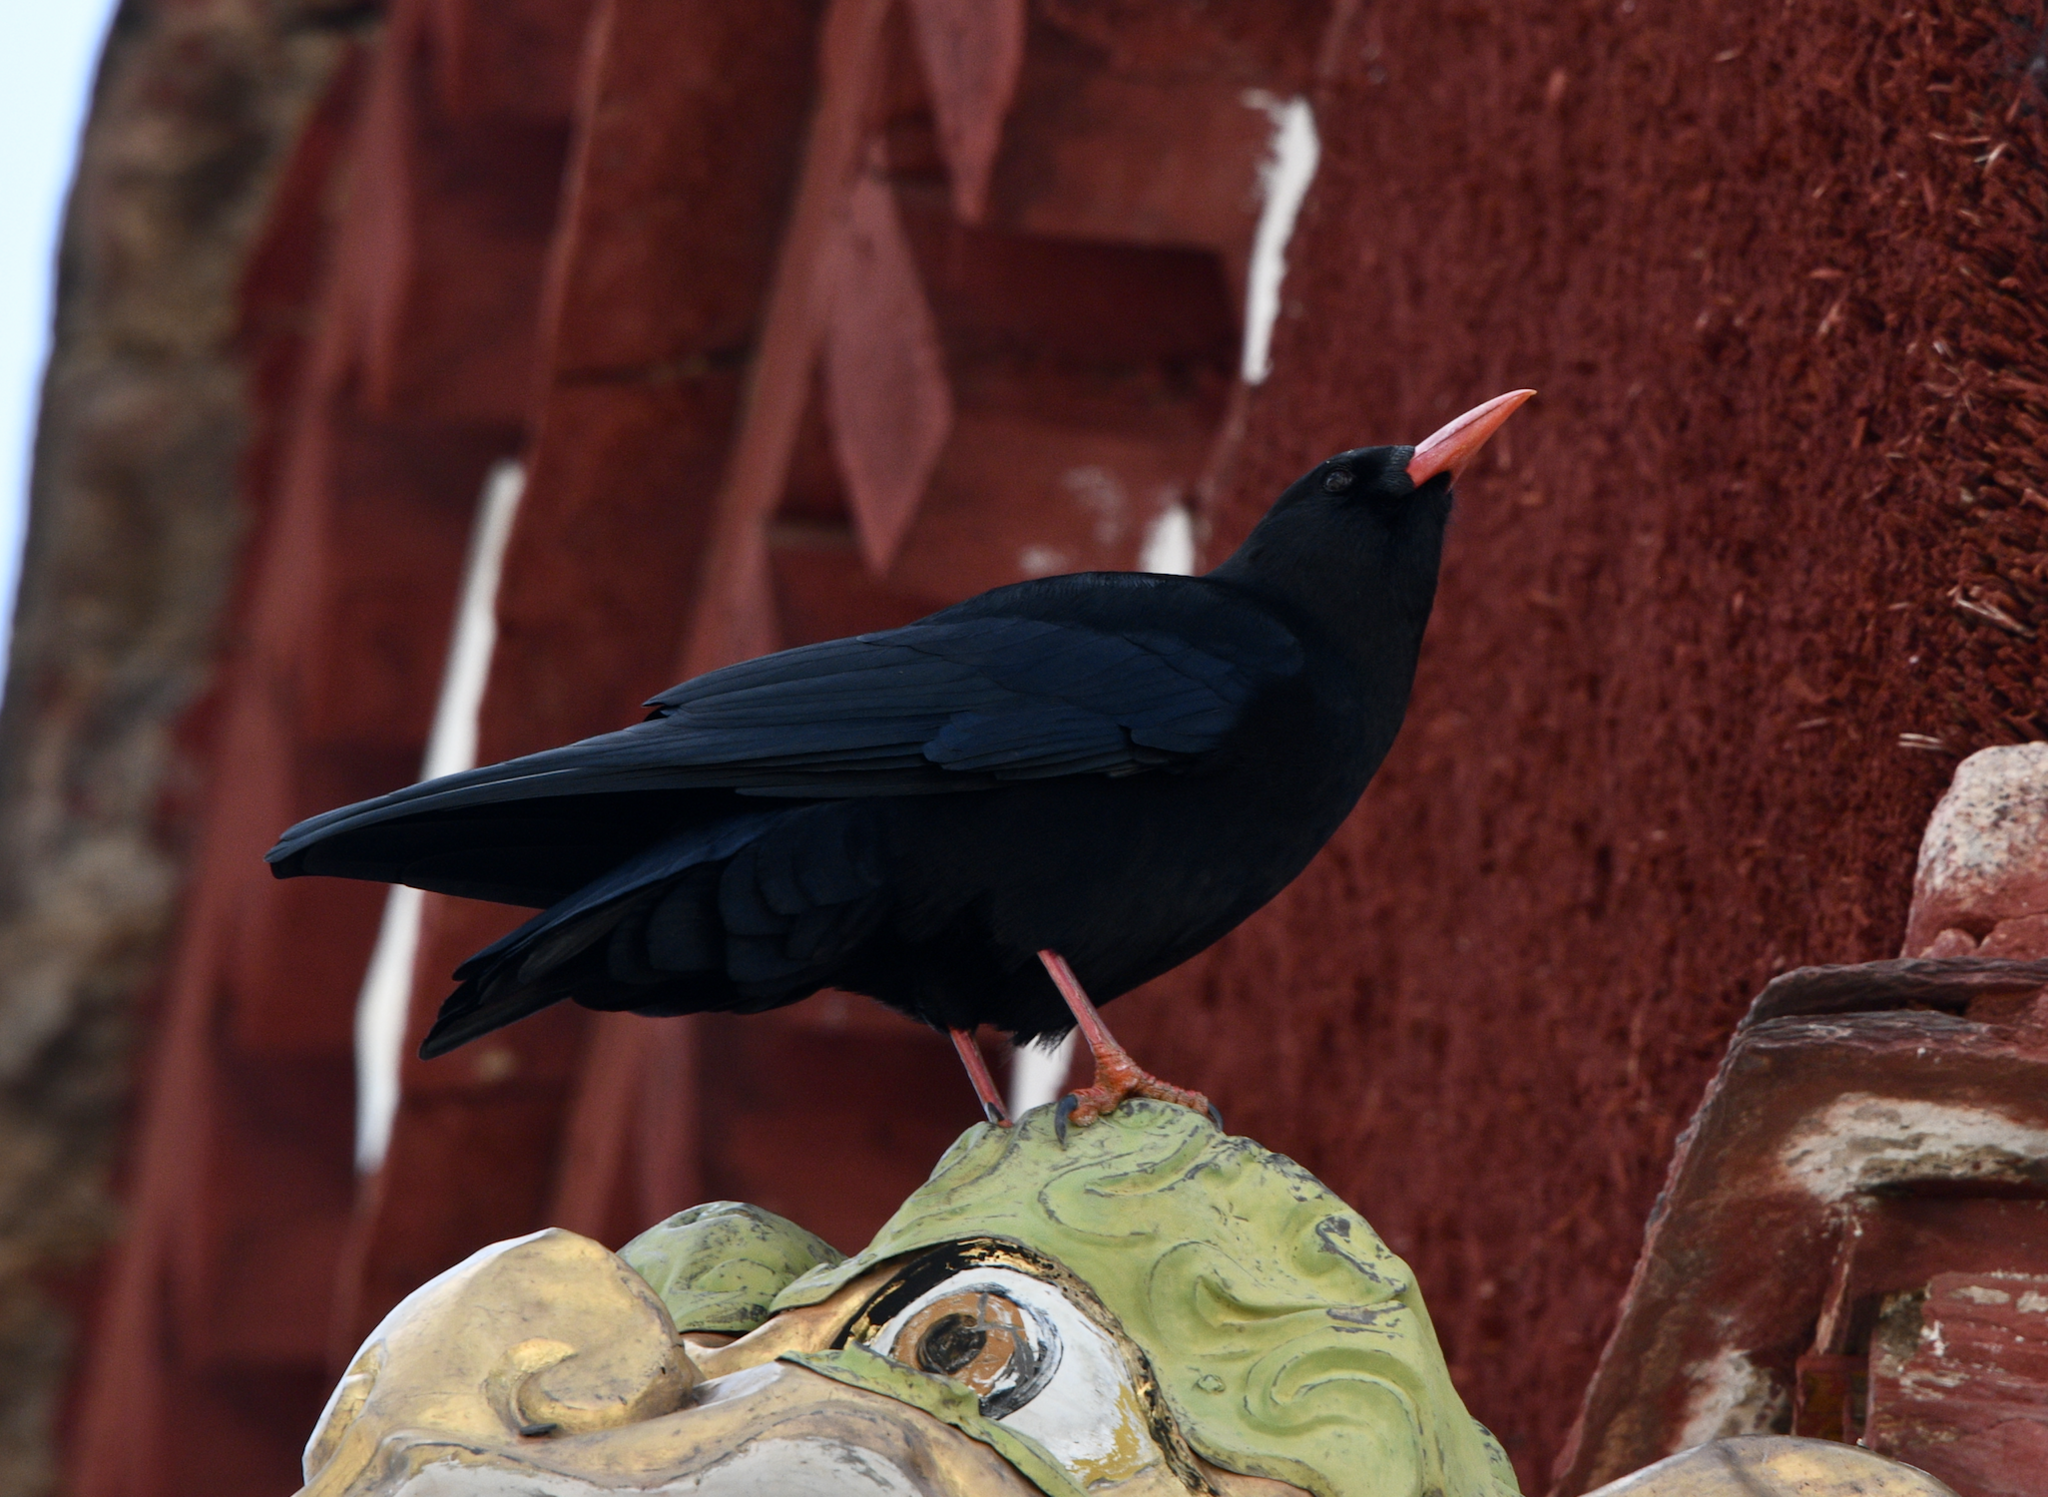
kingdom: Animalia
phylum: Chordata
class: Aves
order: Passeriformes
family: Corvidae
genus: Pyrrhocorax
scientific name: Pyrrhocorax pyrrhocorax
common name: Red-billed chough
